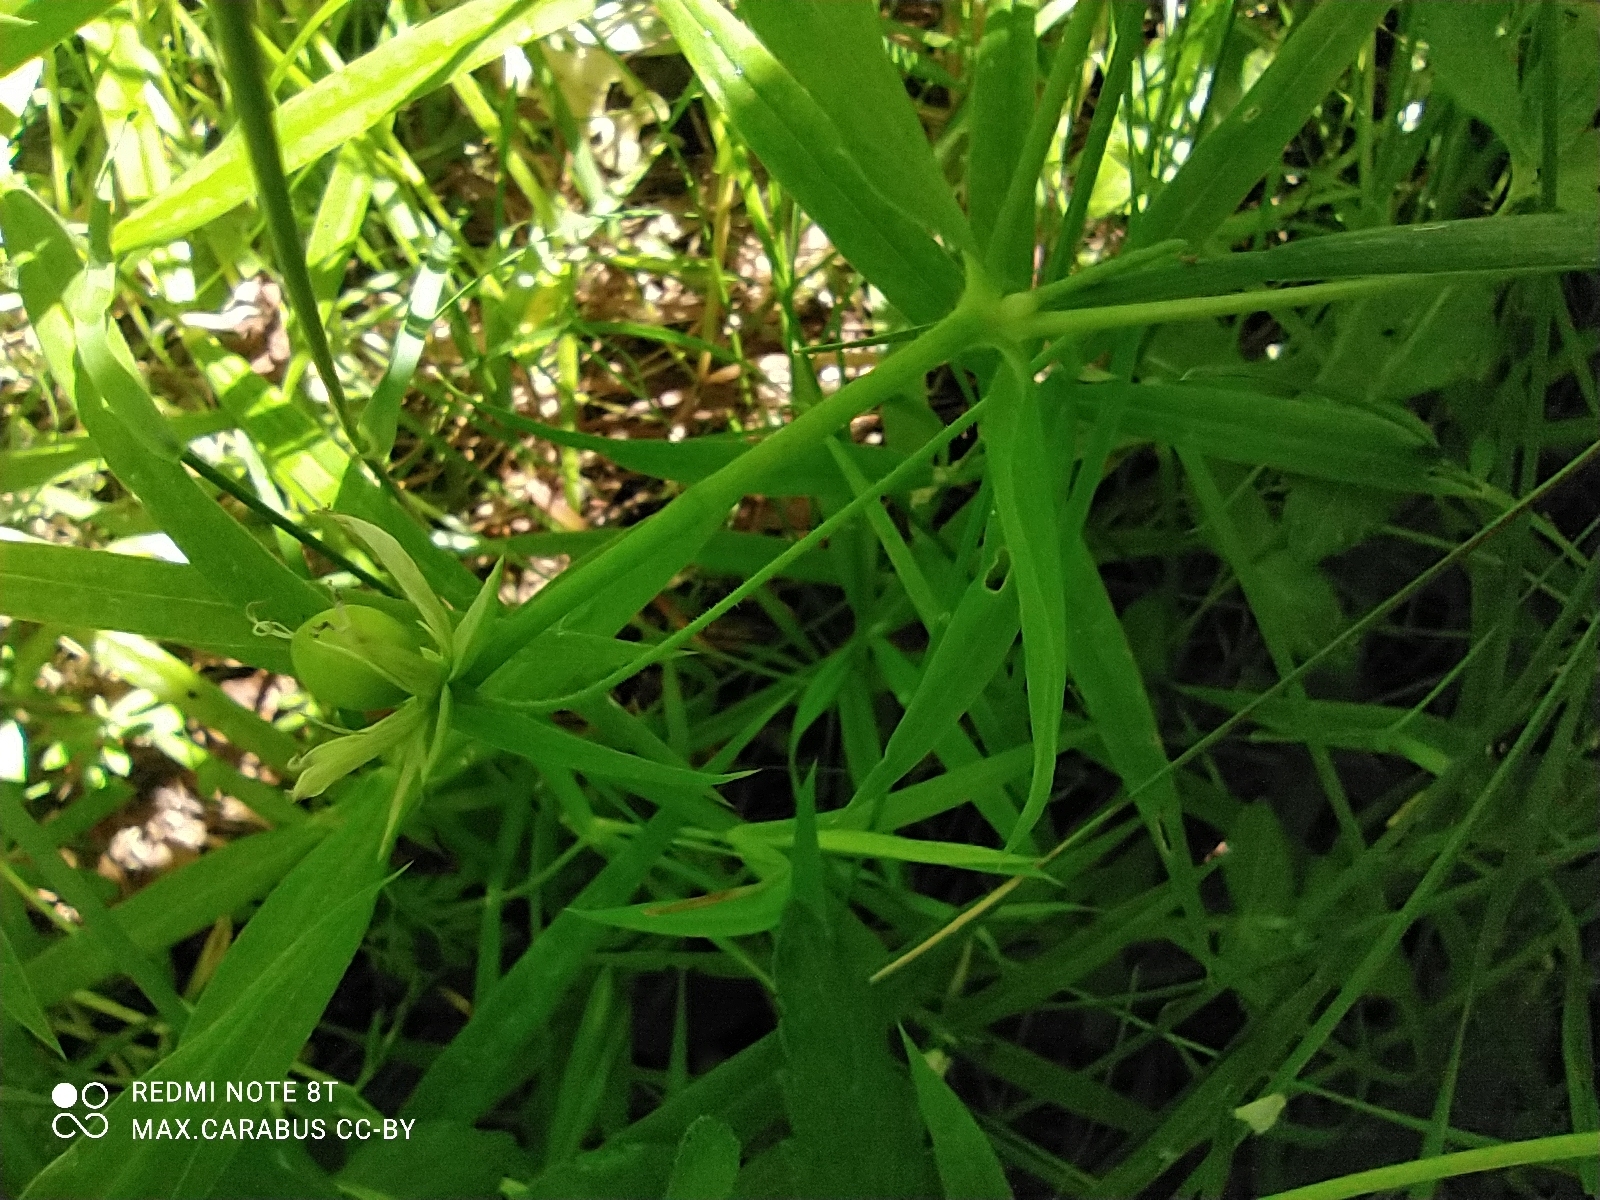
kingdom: Plantae
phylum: Tracheophyta
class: Magnoliopsida
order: Caryophyllales
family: Caryophyllaceae
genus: Rabelera
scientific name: Rabelera holostea
